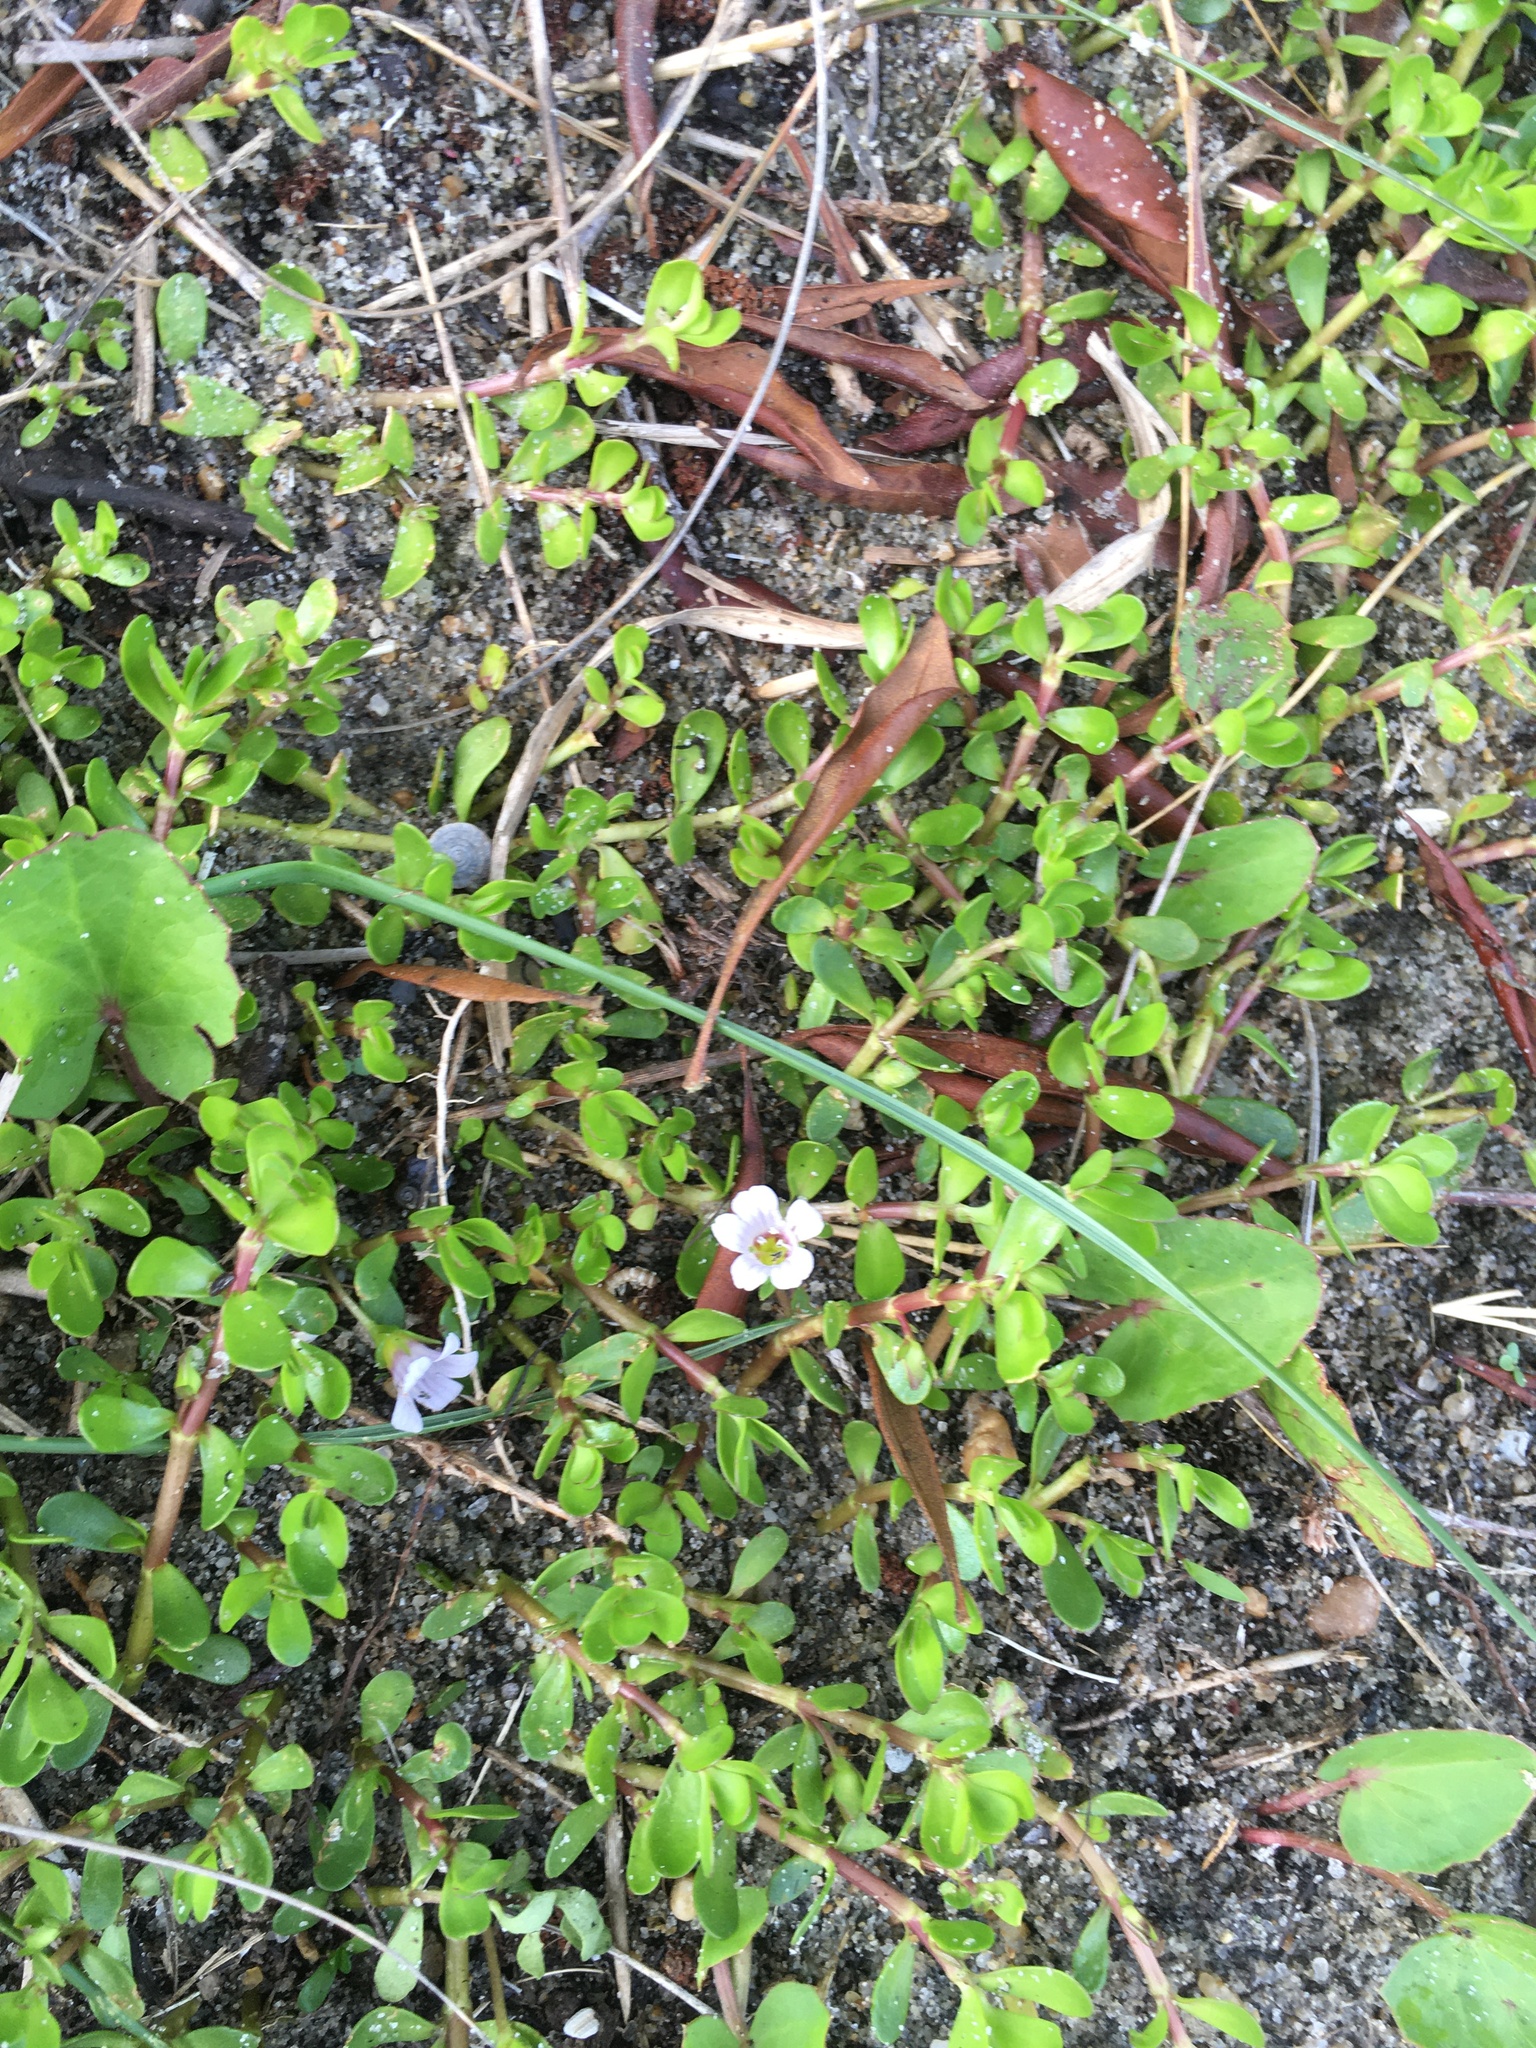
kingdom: Plantae
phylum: Tracheophyta
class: Magnoliopsida
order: Lamiales
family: Plantaginaceae
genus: Bacopa
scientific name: Bacopa monnieri
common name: Indian-pennywort
